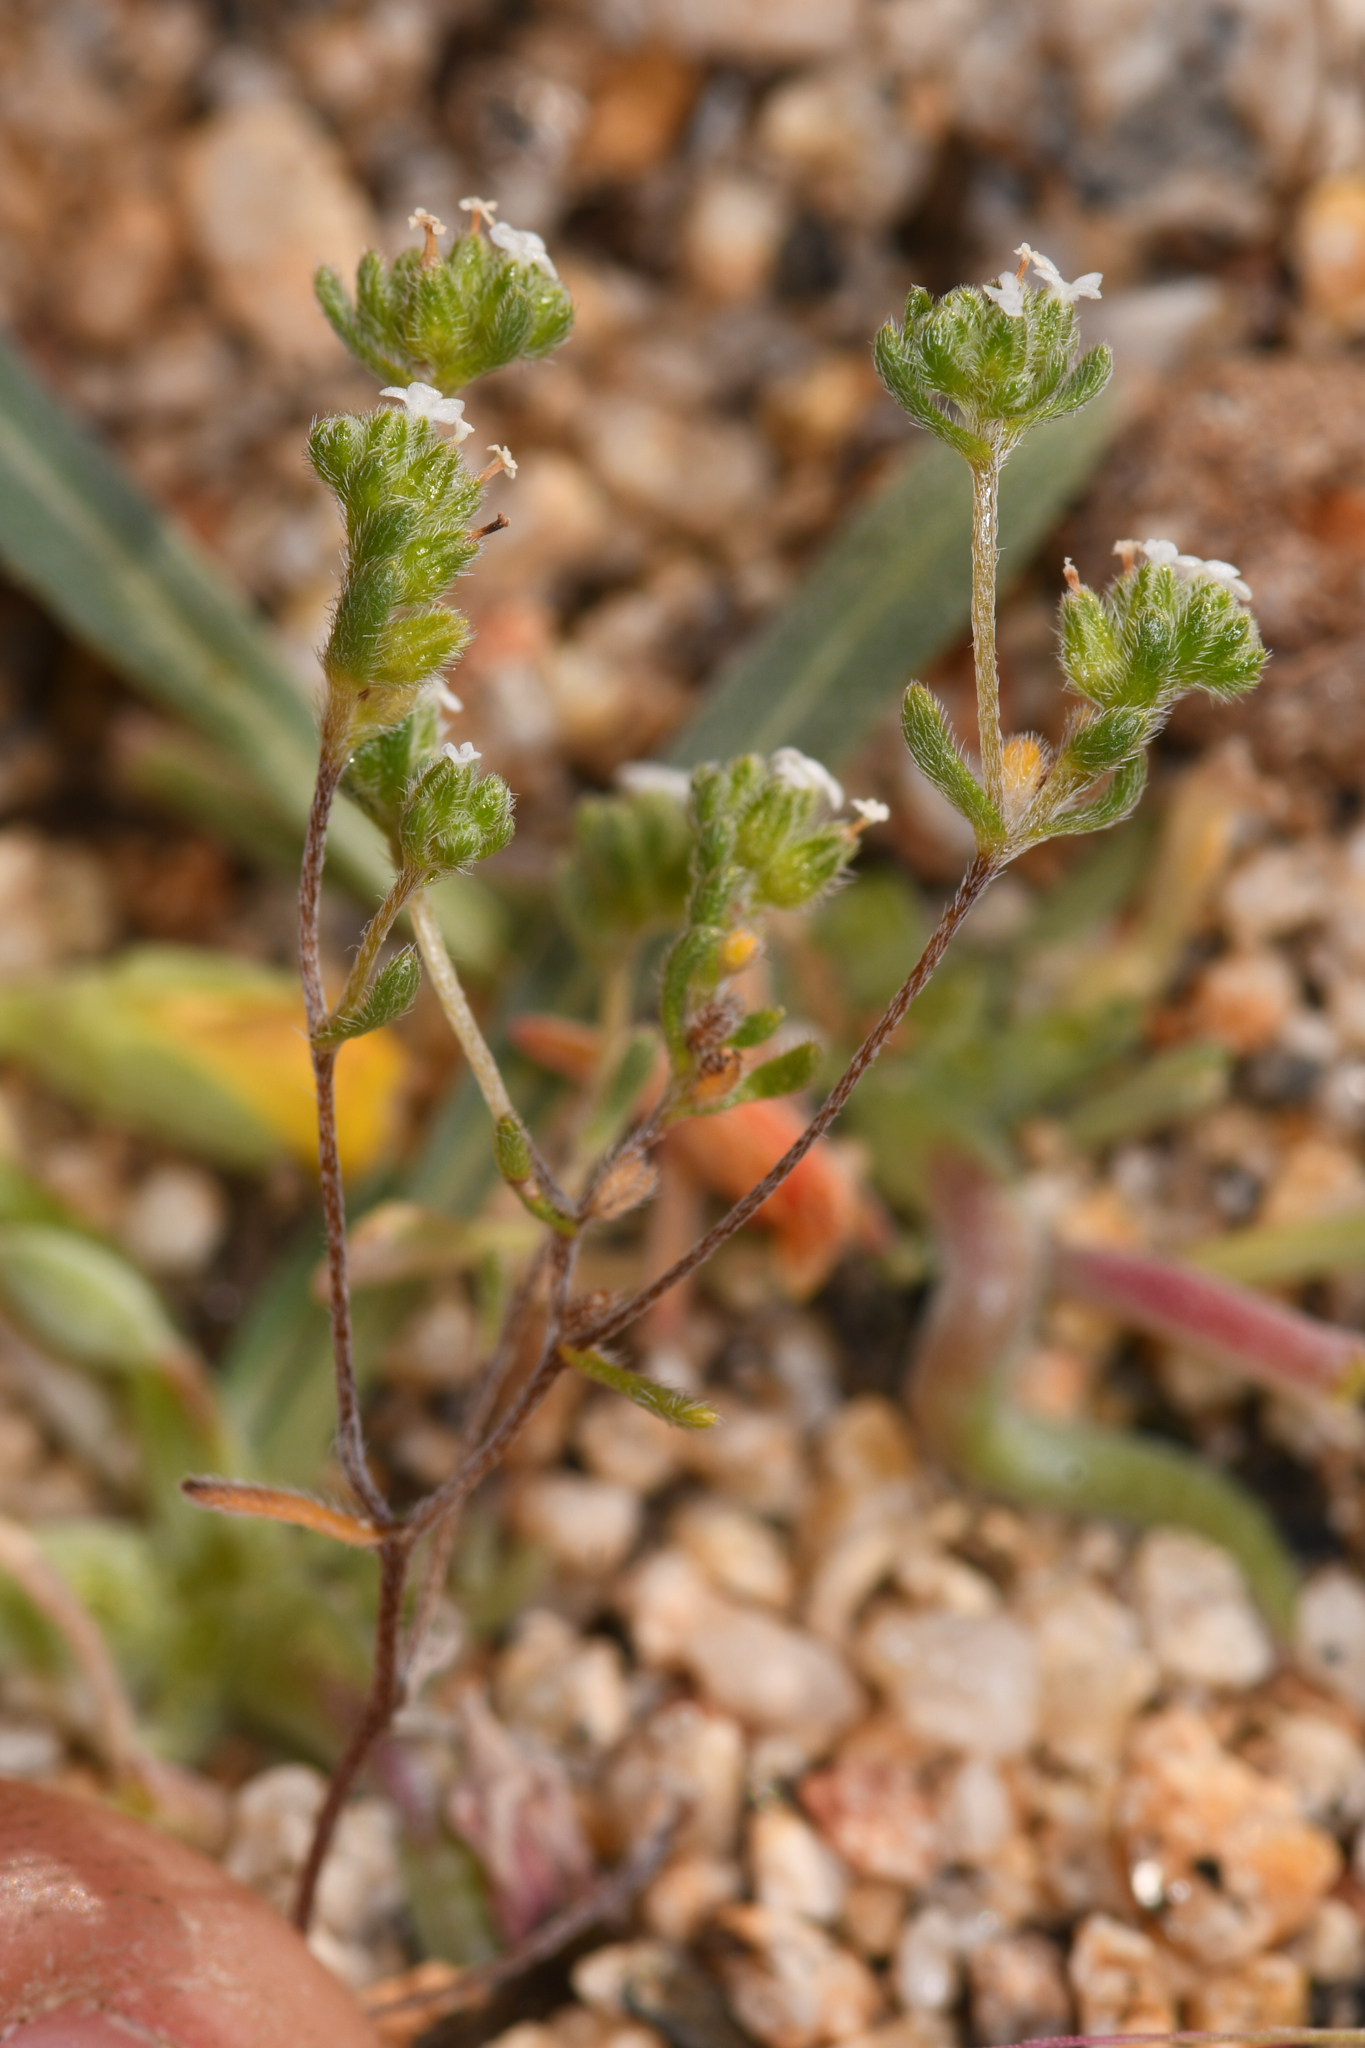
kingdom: Plantae
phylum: Tracheophyta
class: Magnoliopsida
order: Boraginales
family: Boraginaceae
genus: Eremocarya
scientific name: Eremocarya micrantha
